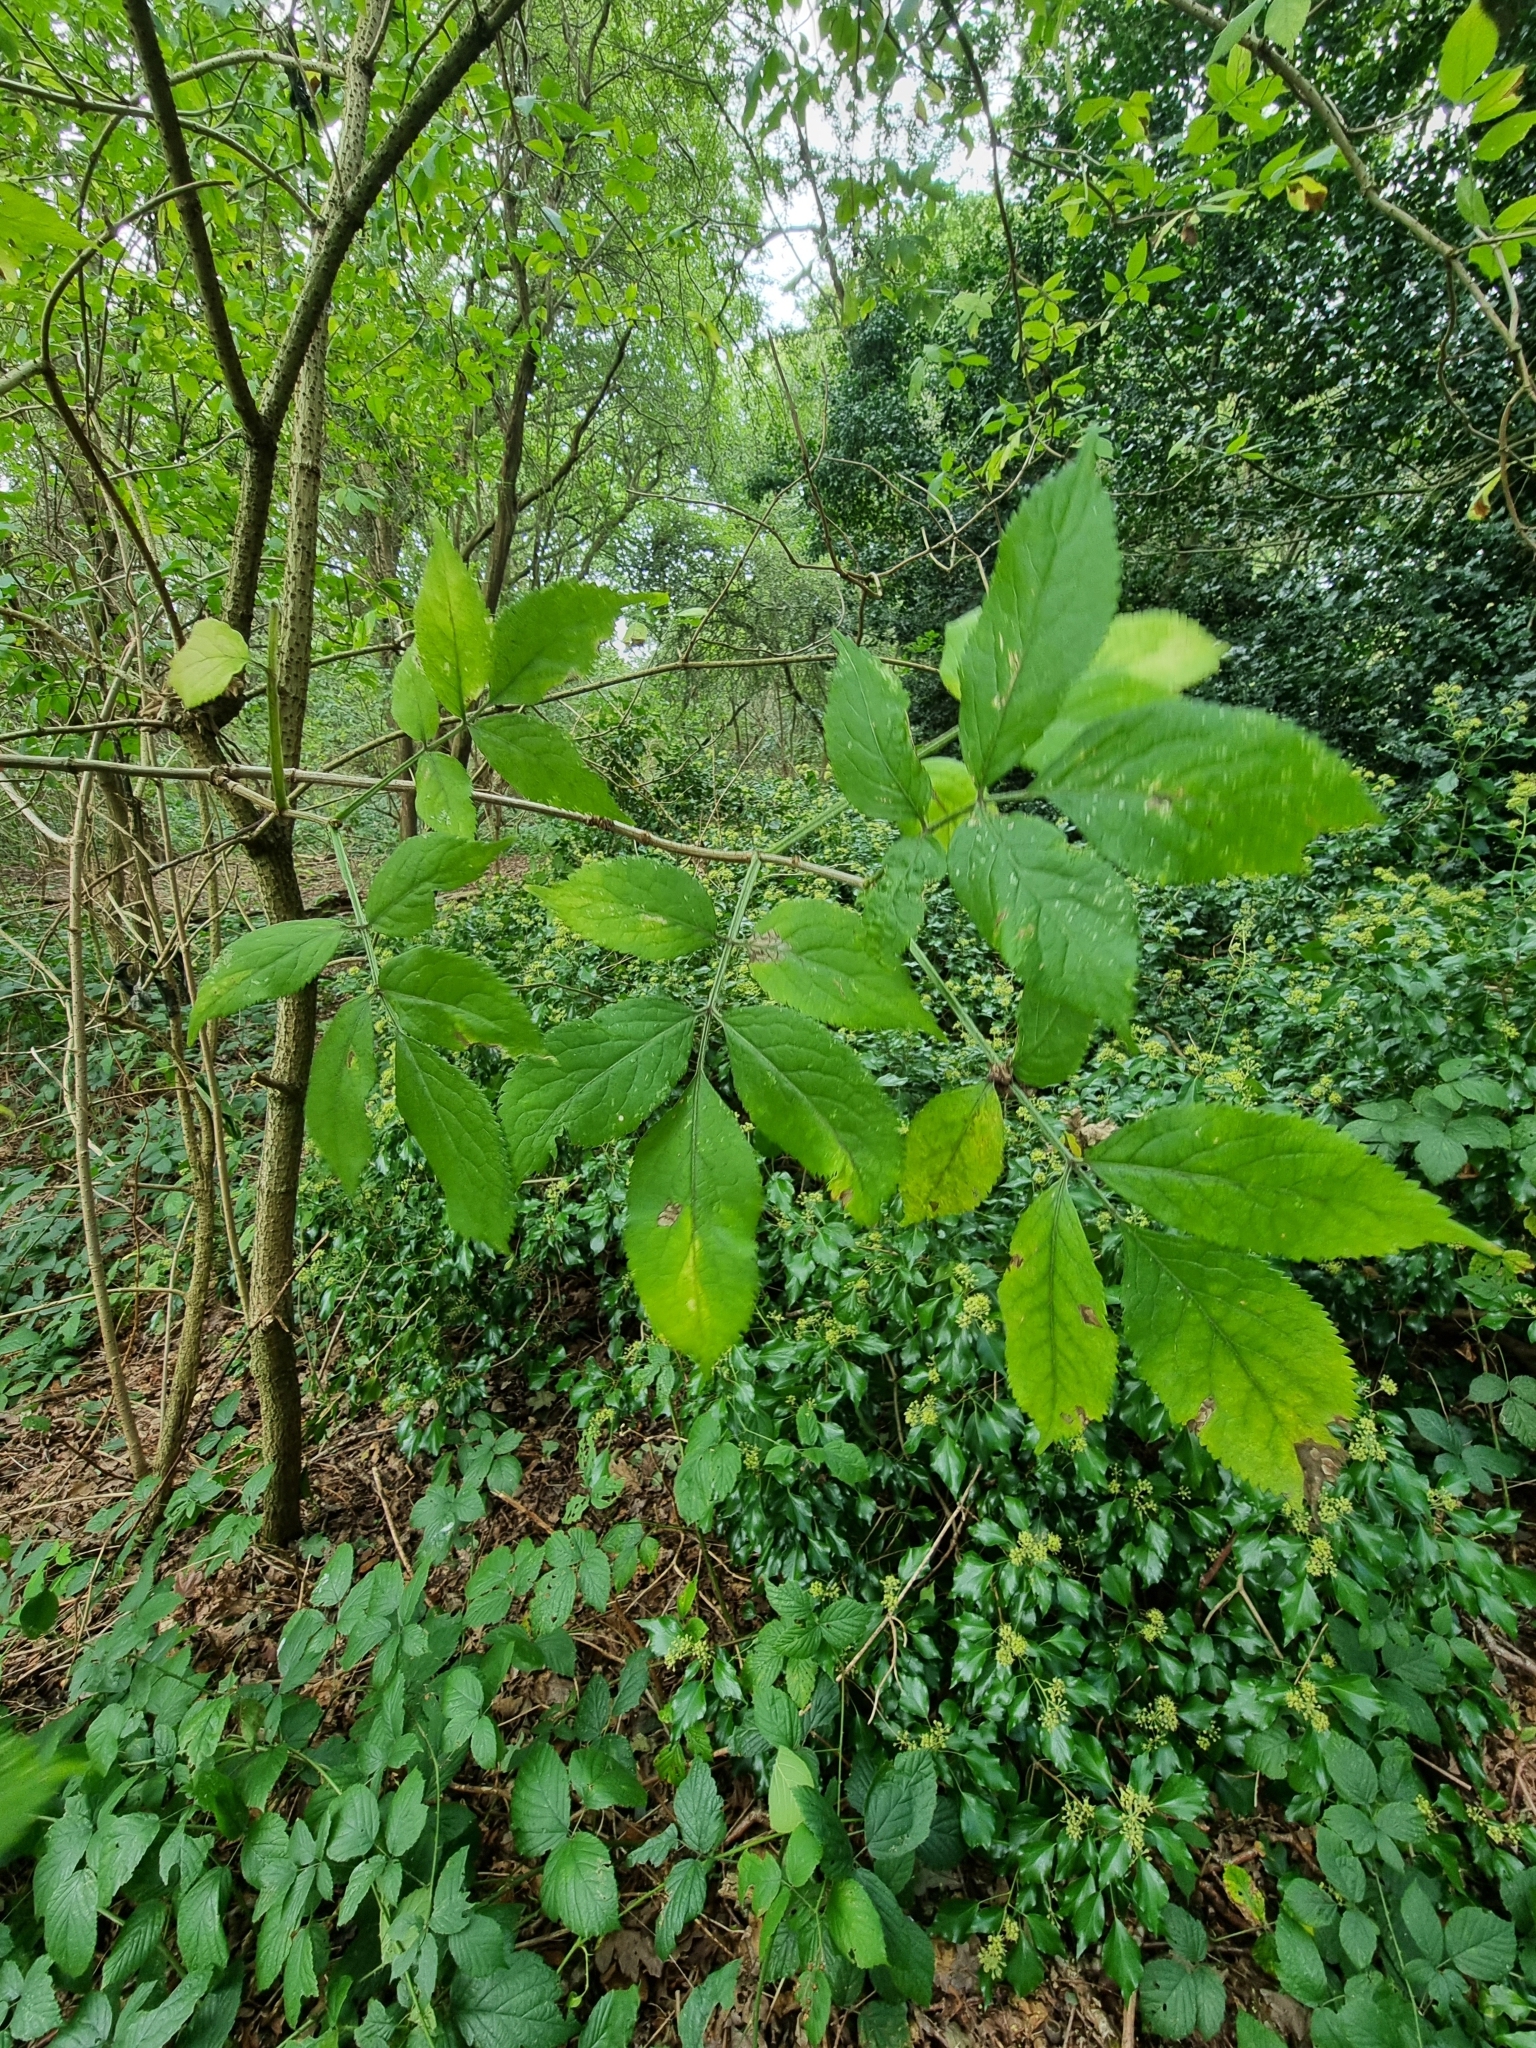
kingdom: Plantae
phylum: Tracheophyta
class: Magnoliopsida
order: Dipsacales
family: Viburnaceae
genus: Sambucus
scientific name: Sambucus nigra
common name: Elder
